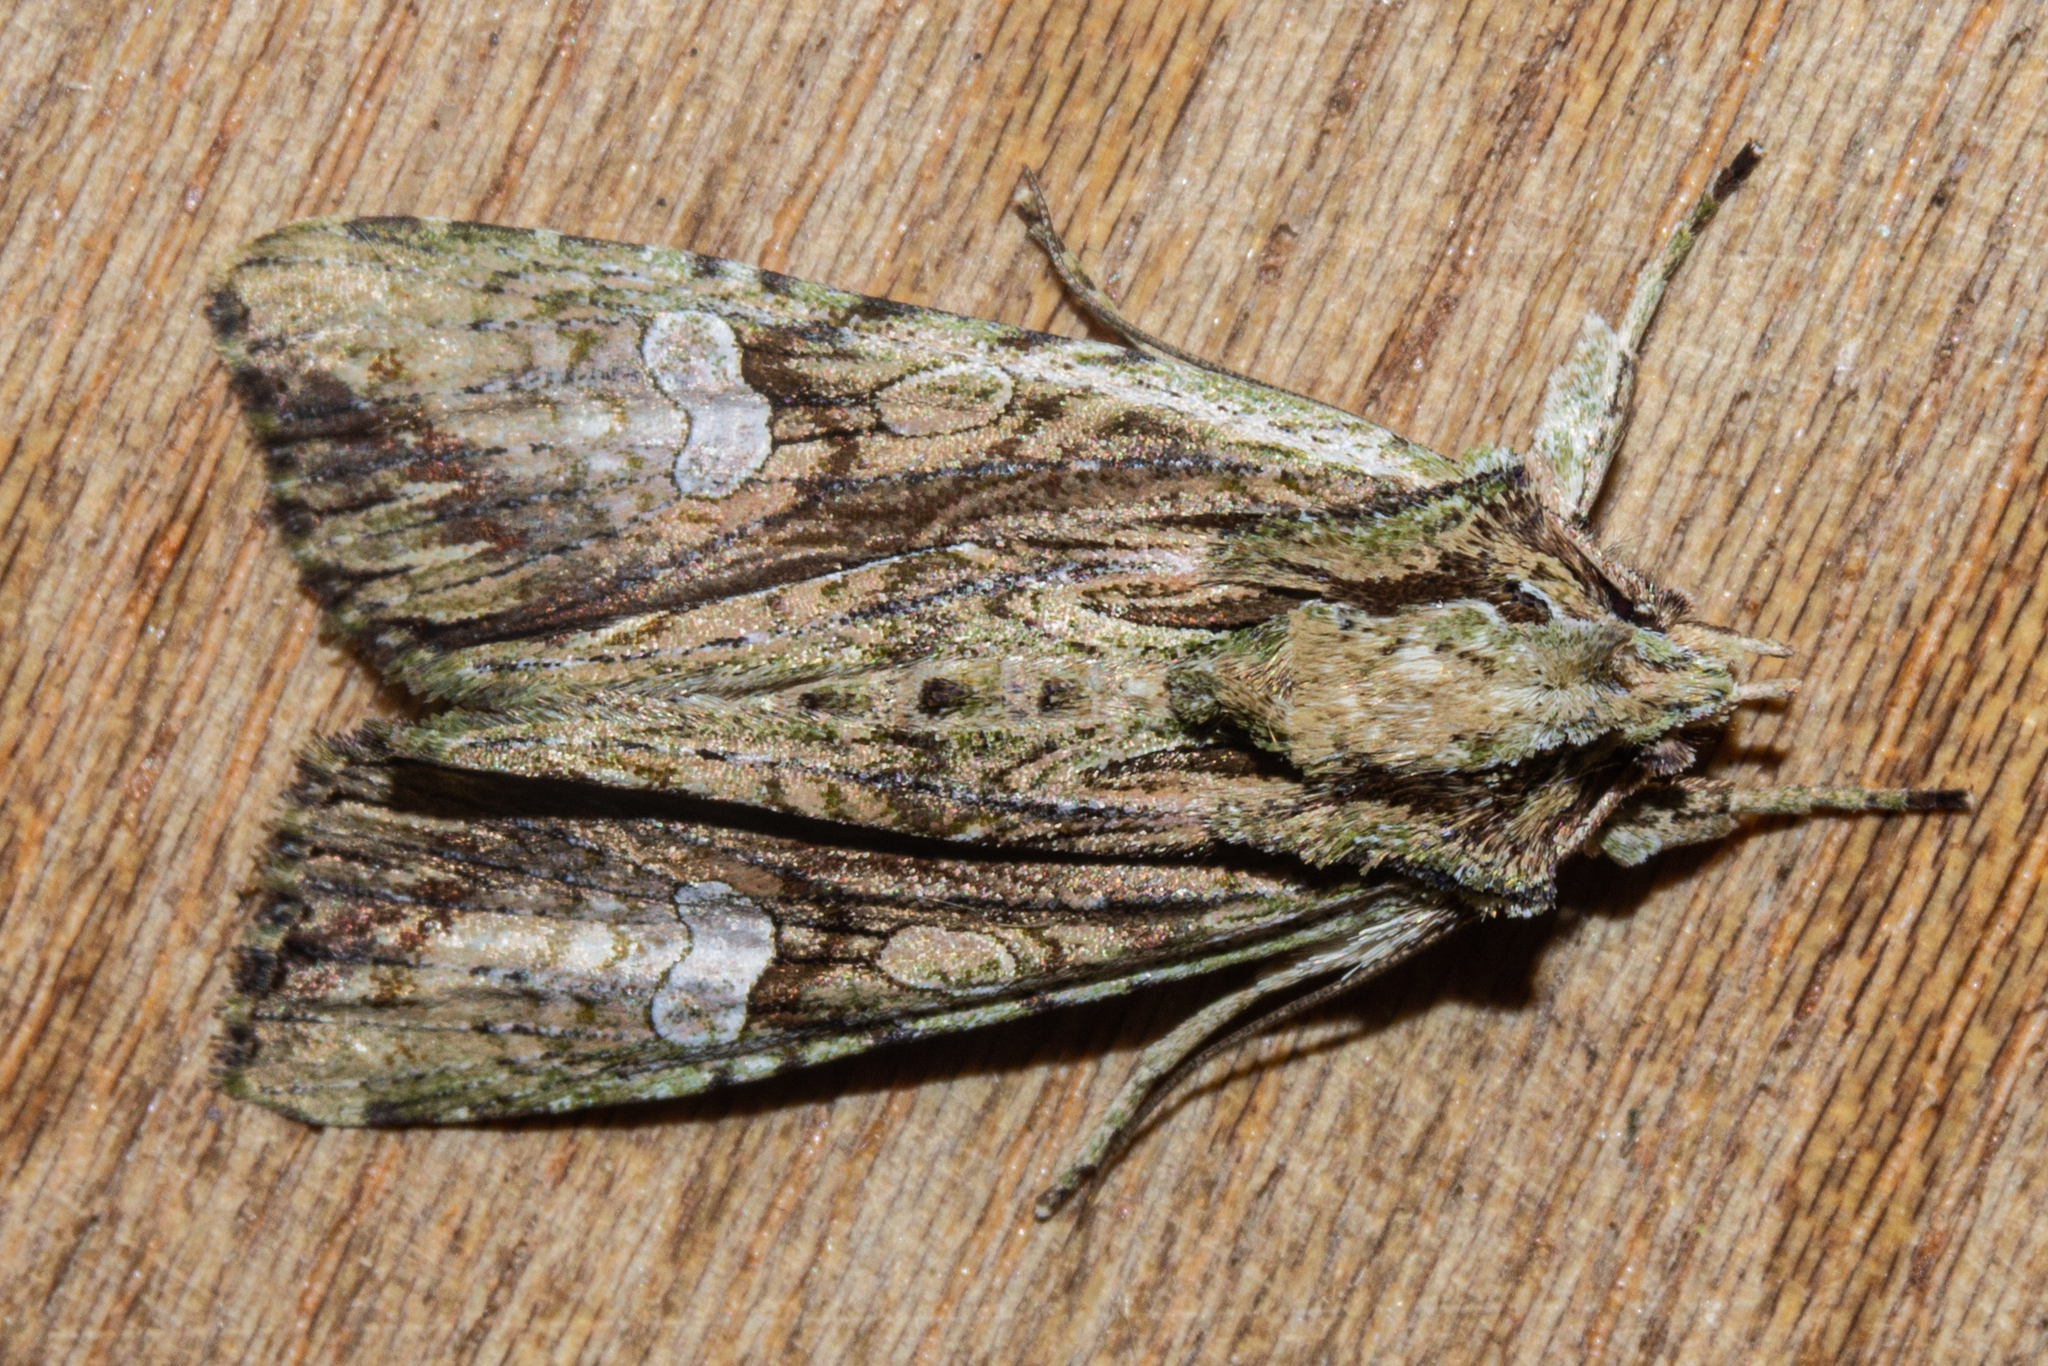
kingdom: Animalia
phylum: Arthropoda
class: Insecta
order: Lepidoptera
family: Noctuidae
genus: Meterana
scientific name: Meterana decorata
